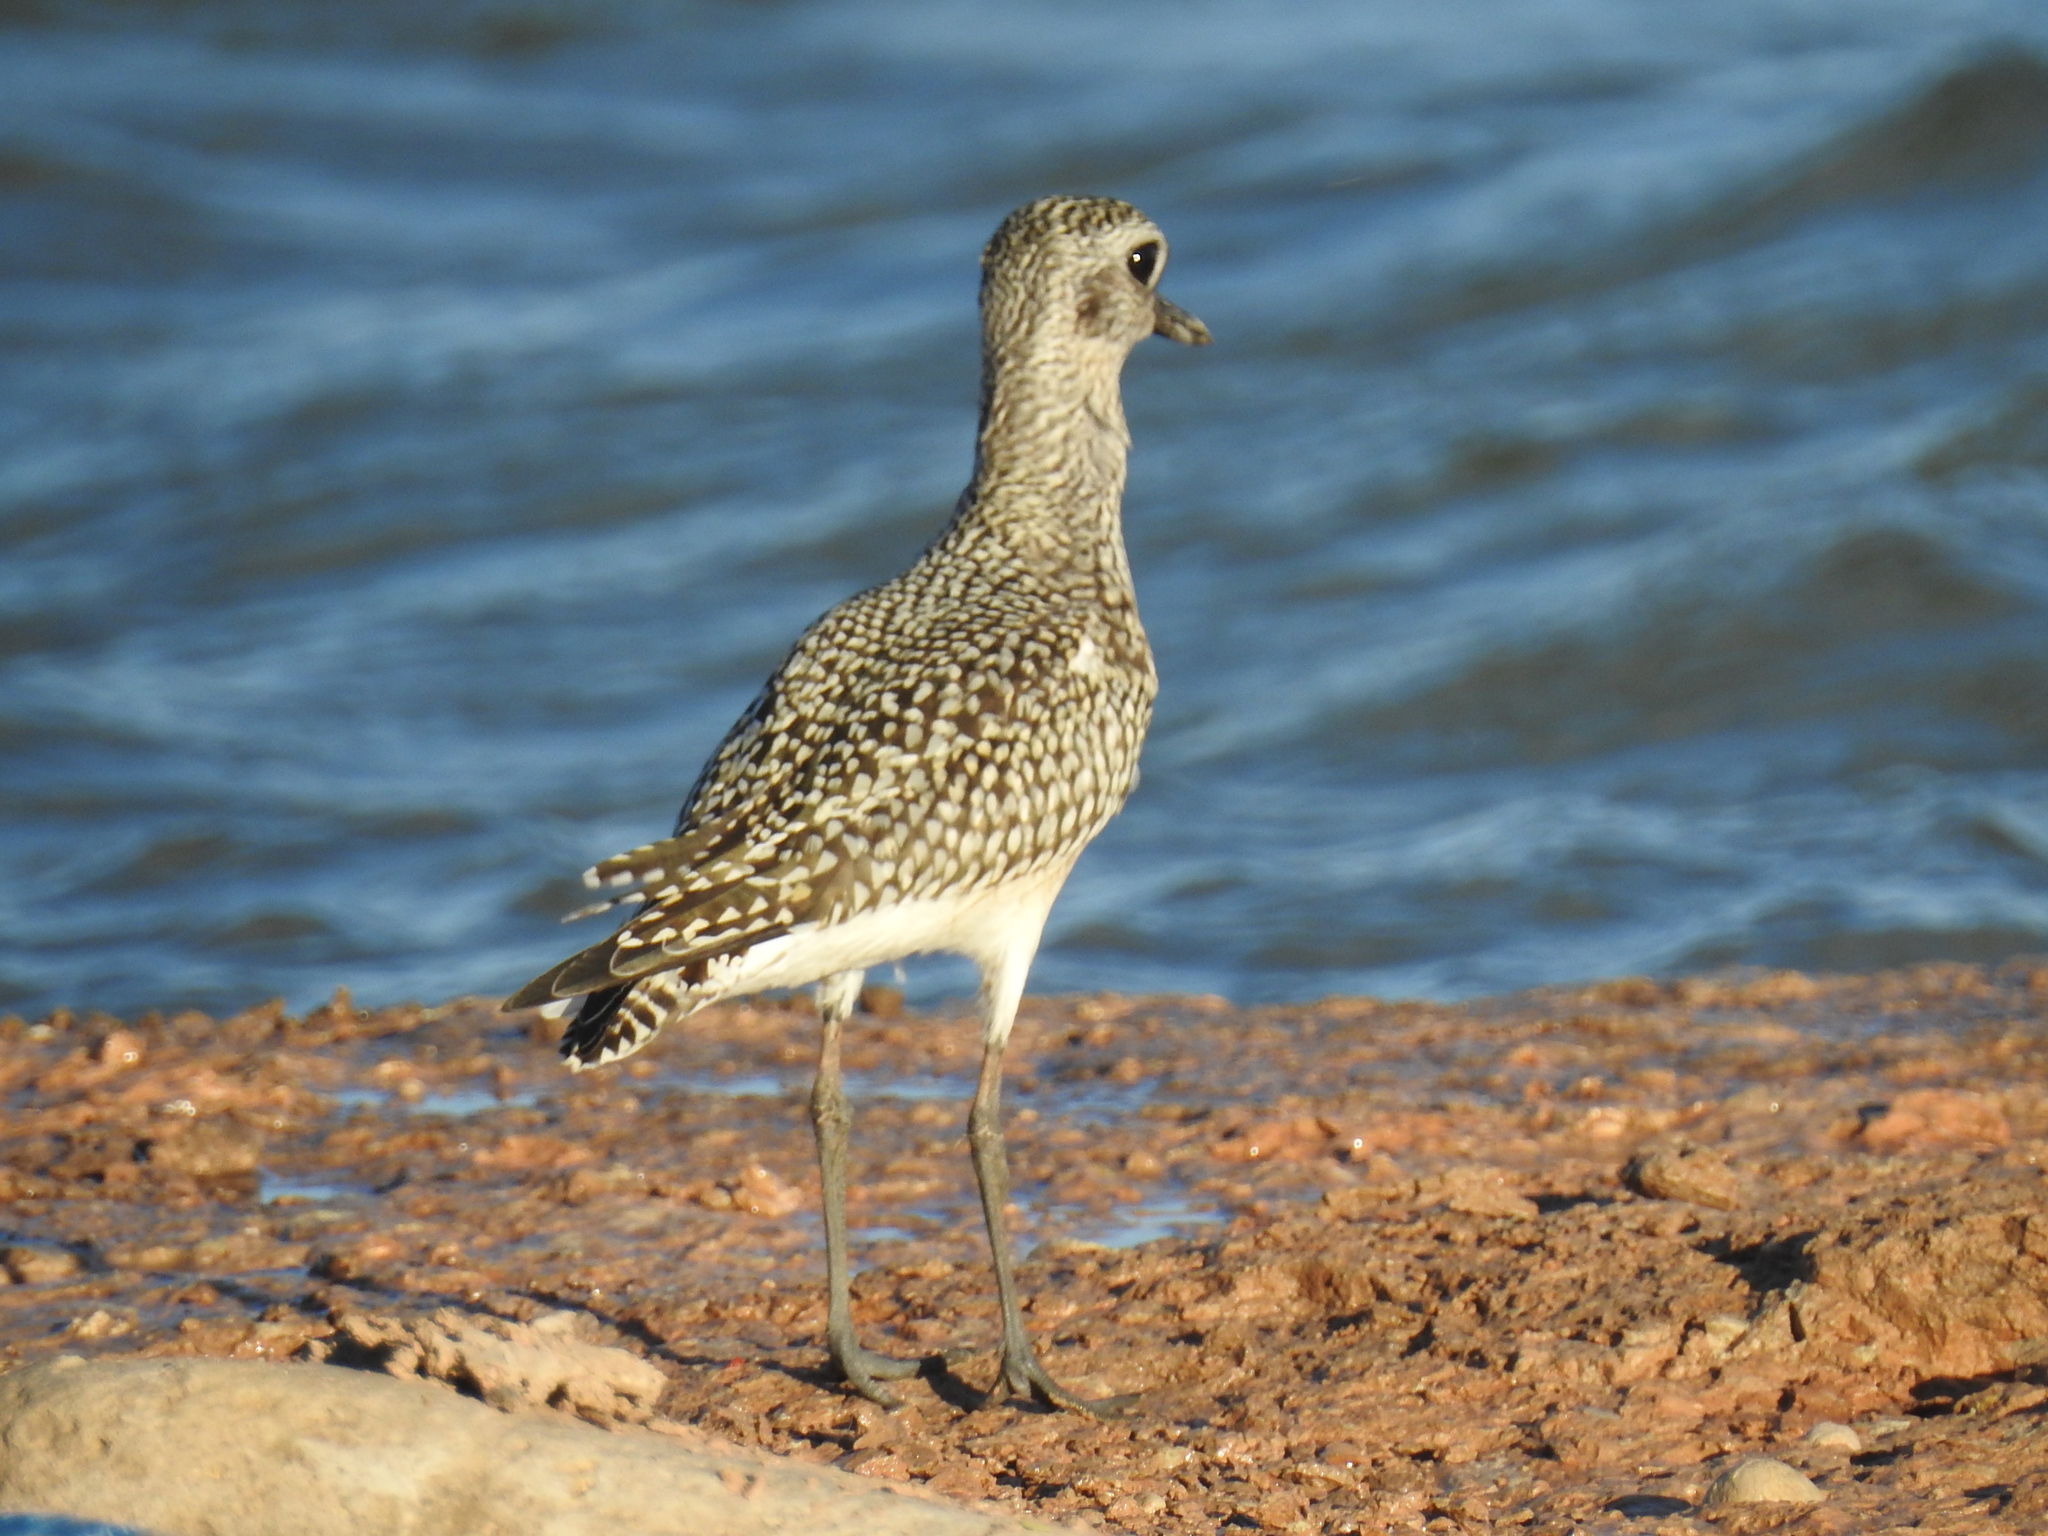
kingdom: Animalia
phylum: Chordata
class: Aves
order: Charadriiformes
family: Charadriidae
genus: Pluvialis
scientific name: Pluvialis dominica
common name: American golden plover
